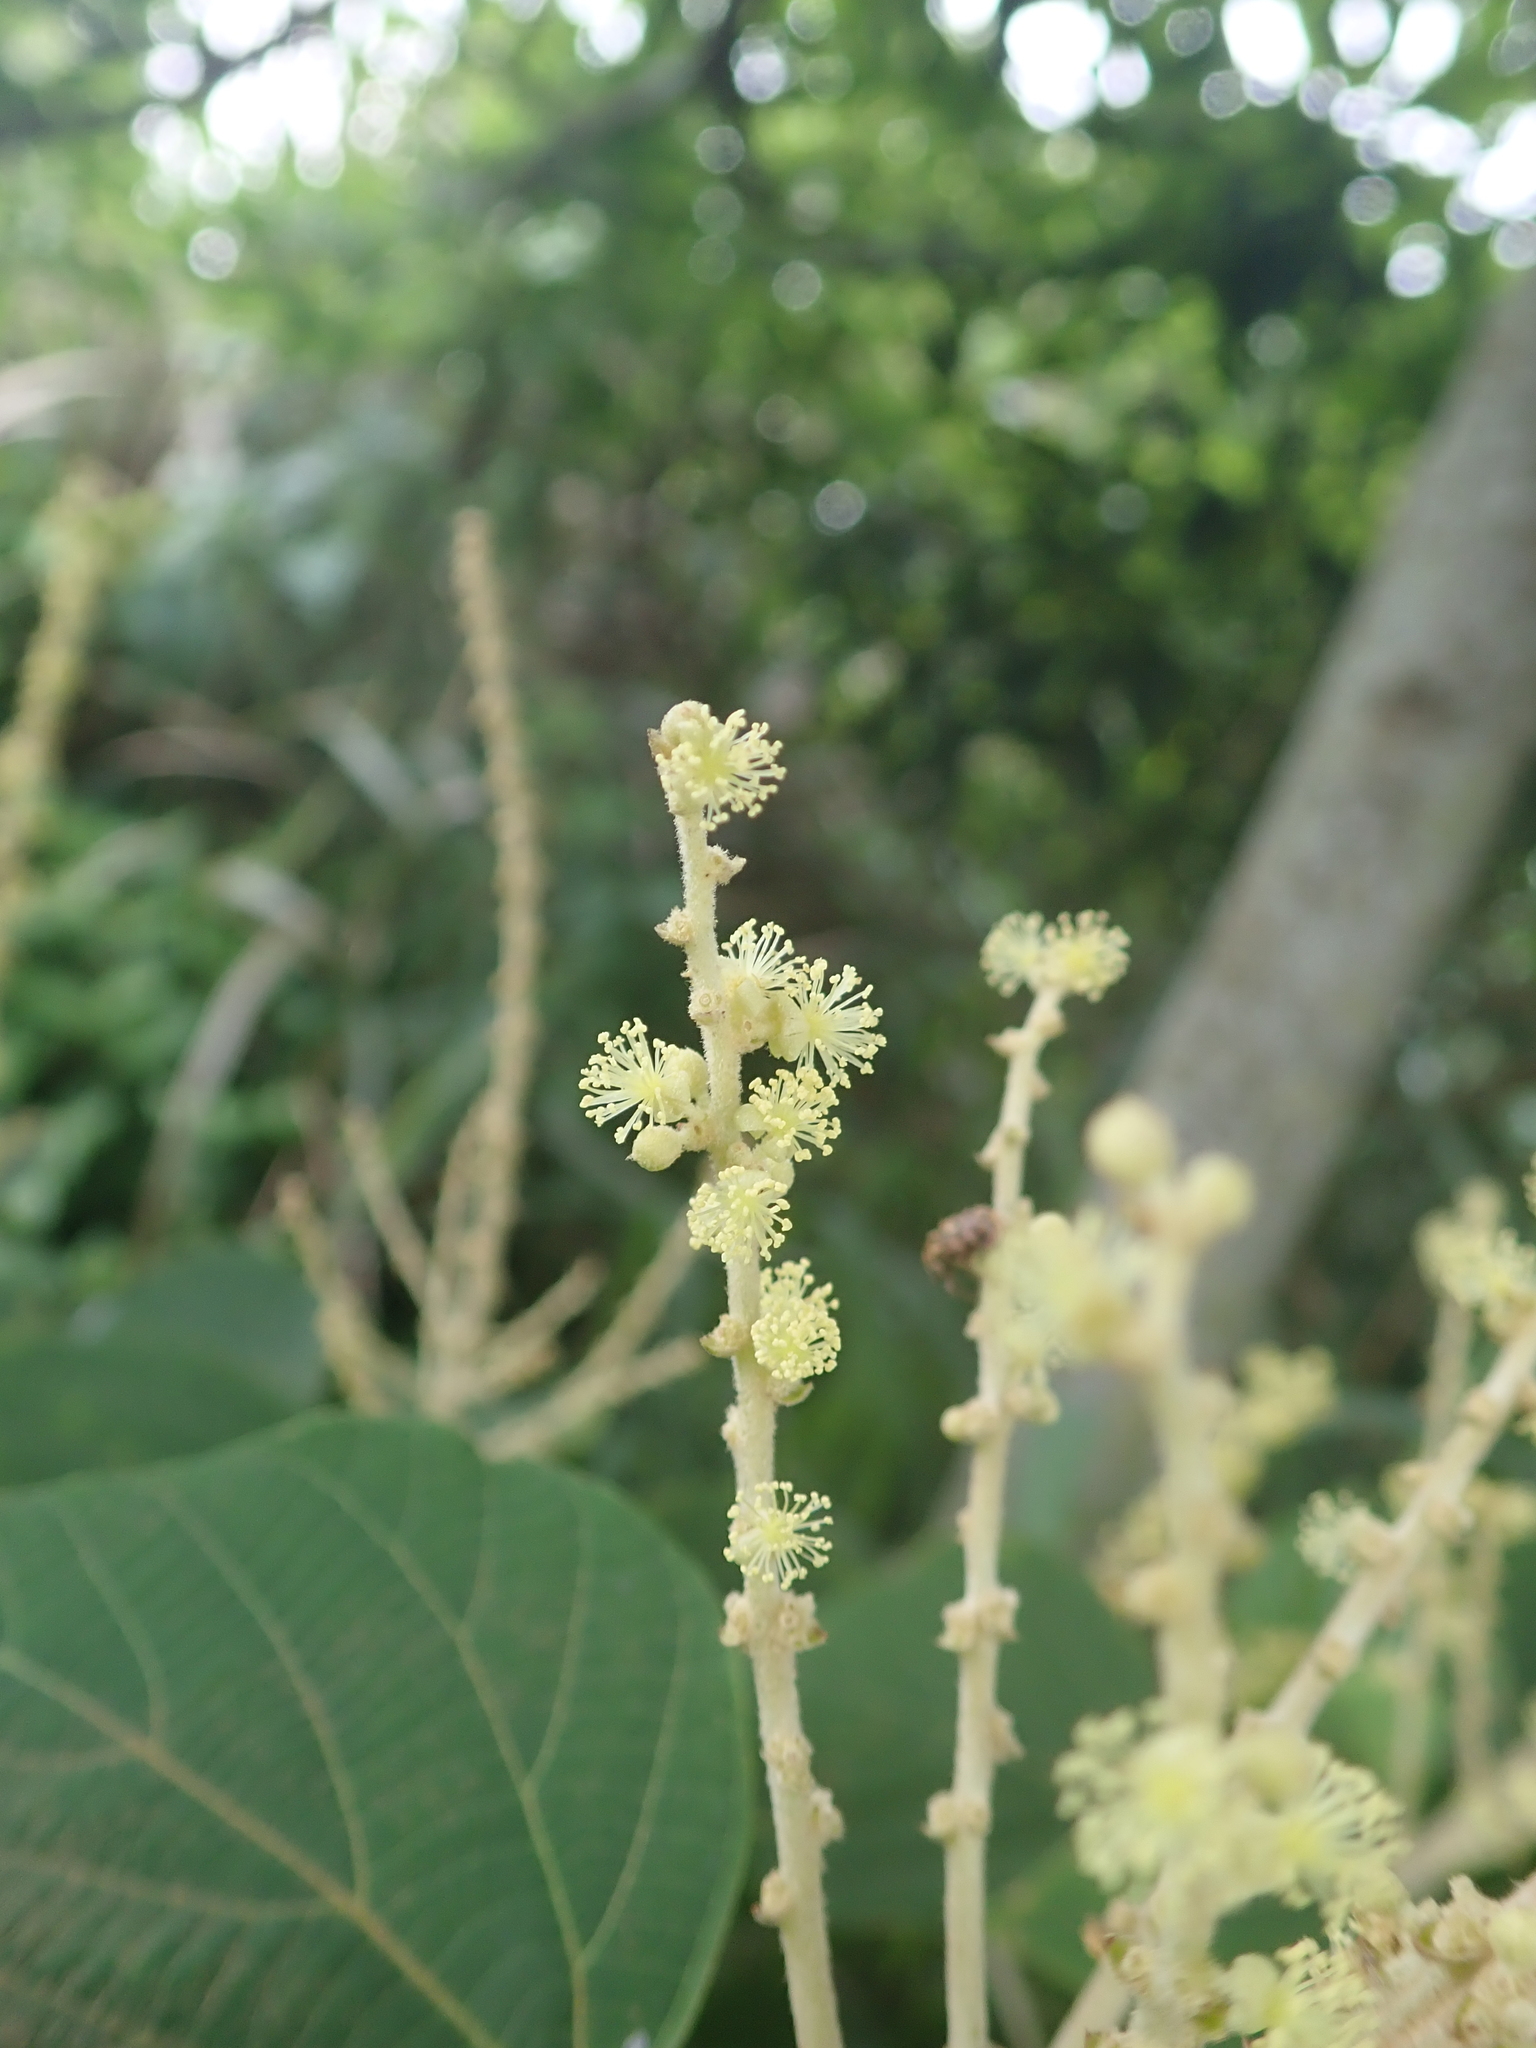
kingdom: Plantae
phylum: Tracheophyta
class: Magnoliopsida
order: Malpighiales
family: Euphorbiaceae
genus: Mallotus
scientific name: Mallotus japonicus
